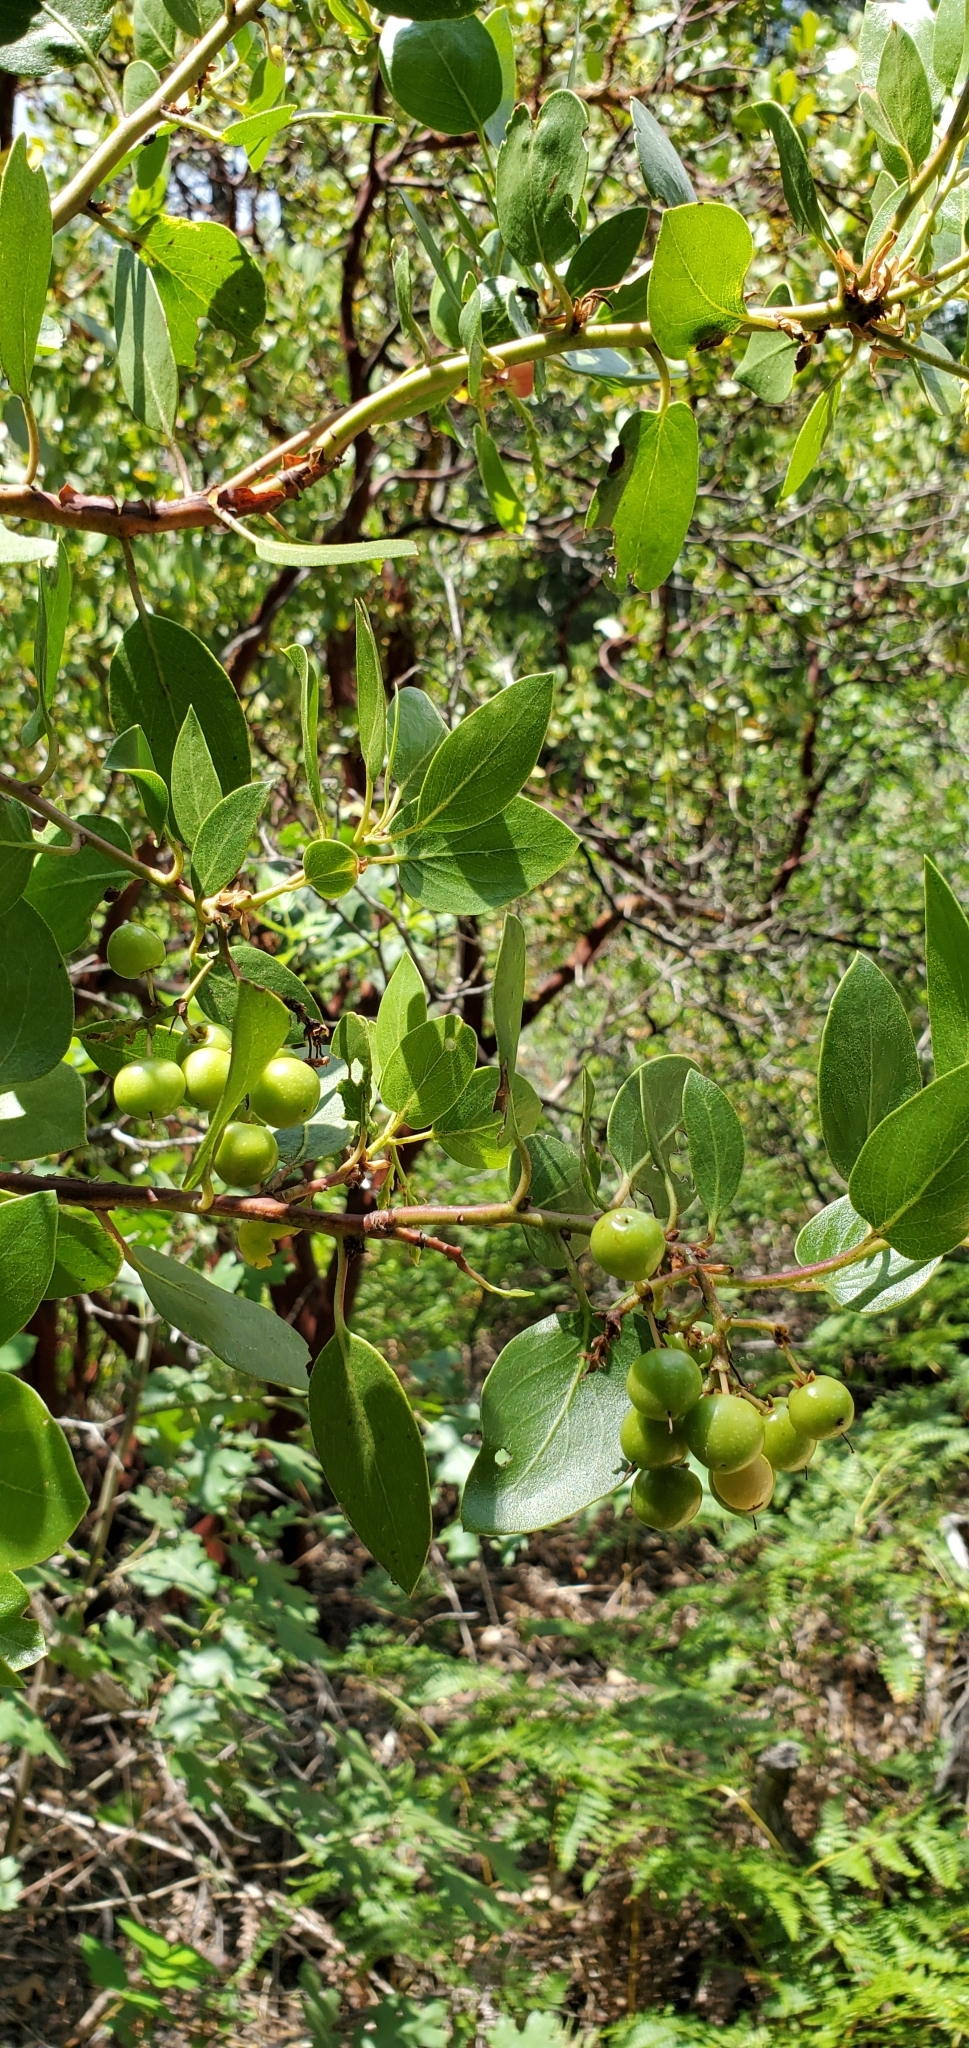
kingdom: Plantae
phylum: Tracheophyta
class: Magnoliopsida
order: Ericales
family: Ericaceae
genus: Arctostaphylos
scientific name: Arctostaphylos patula
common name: Green-leaf manzanita
